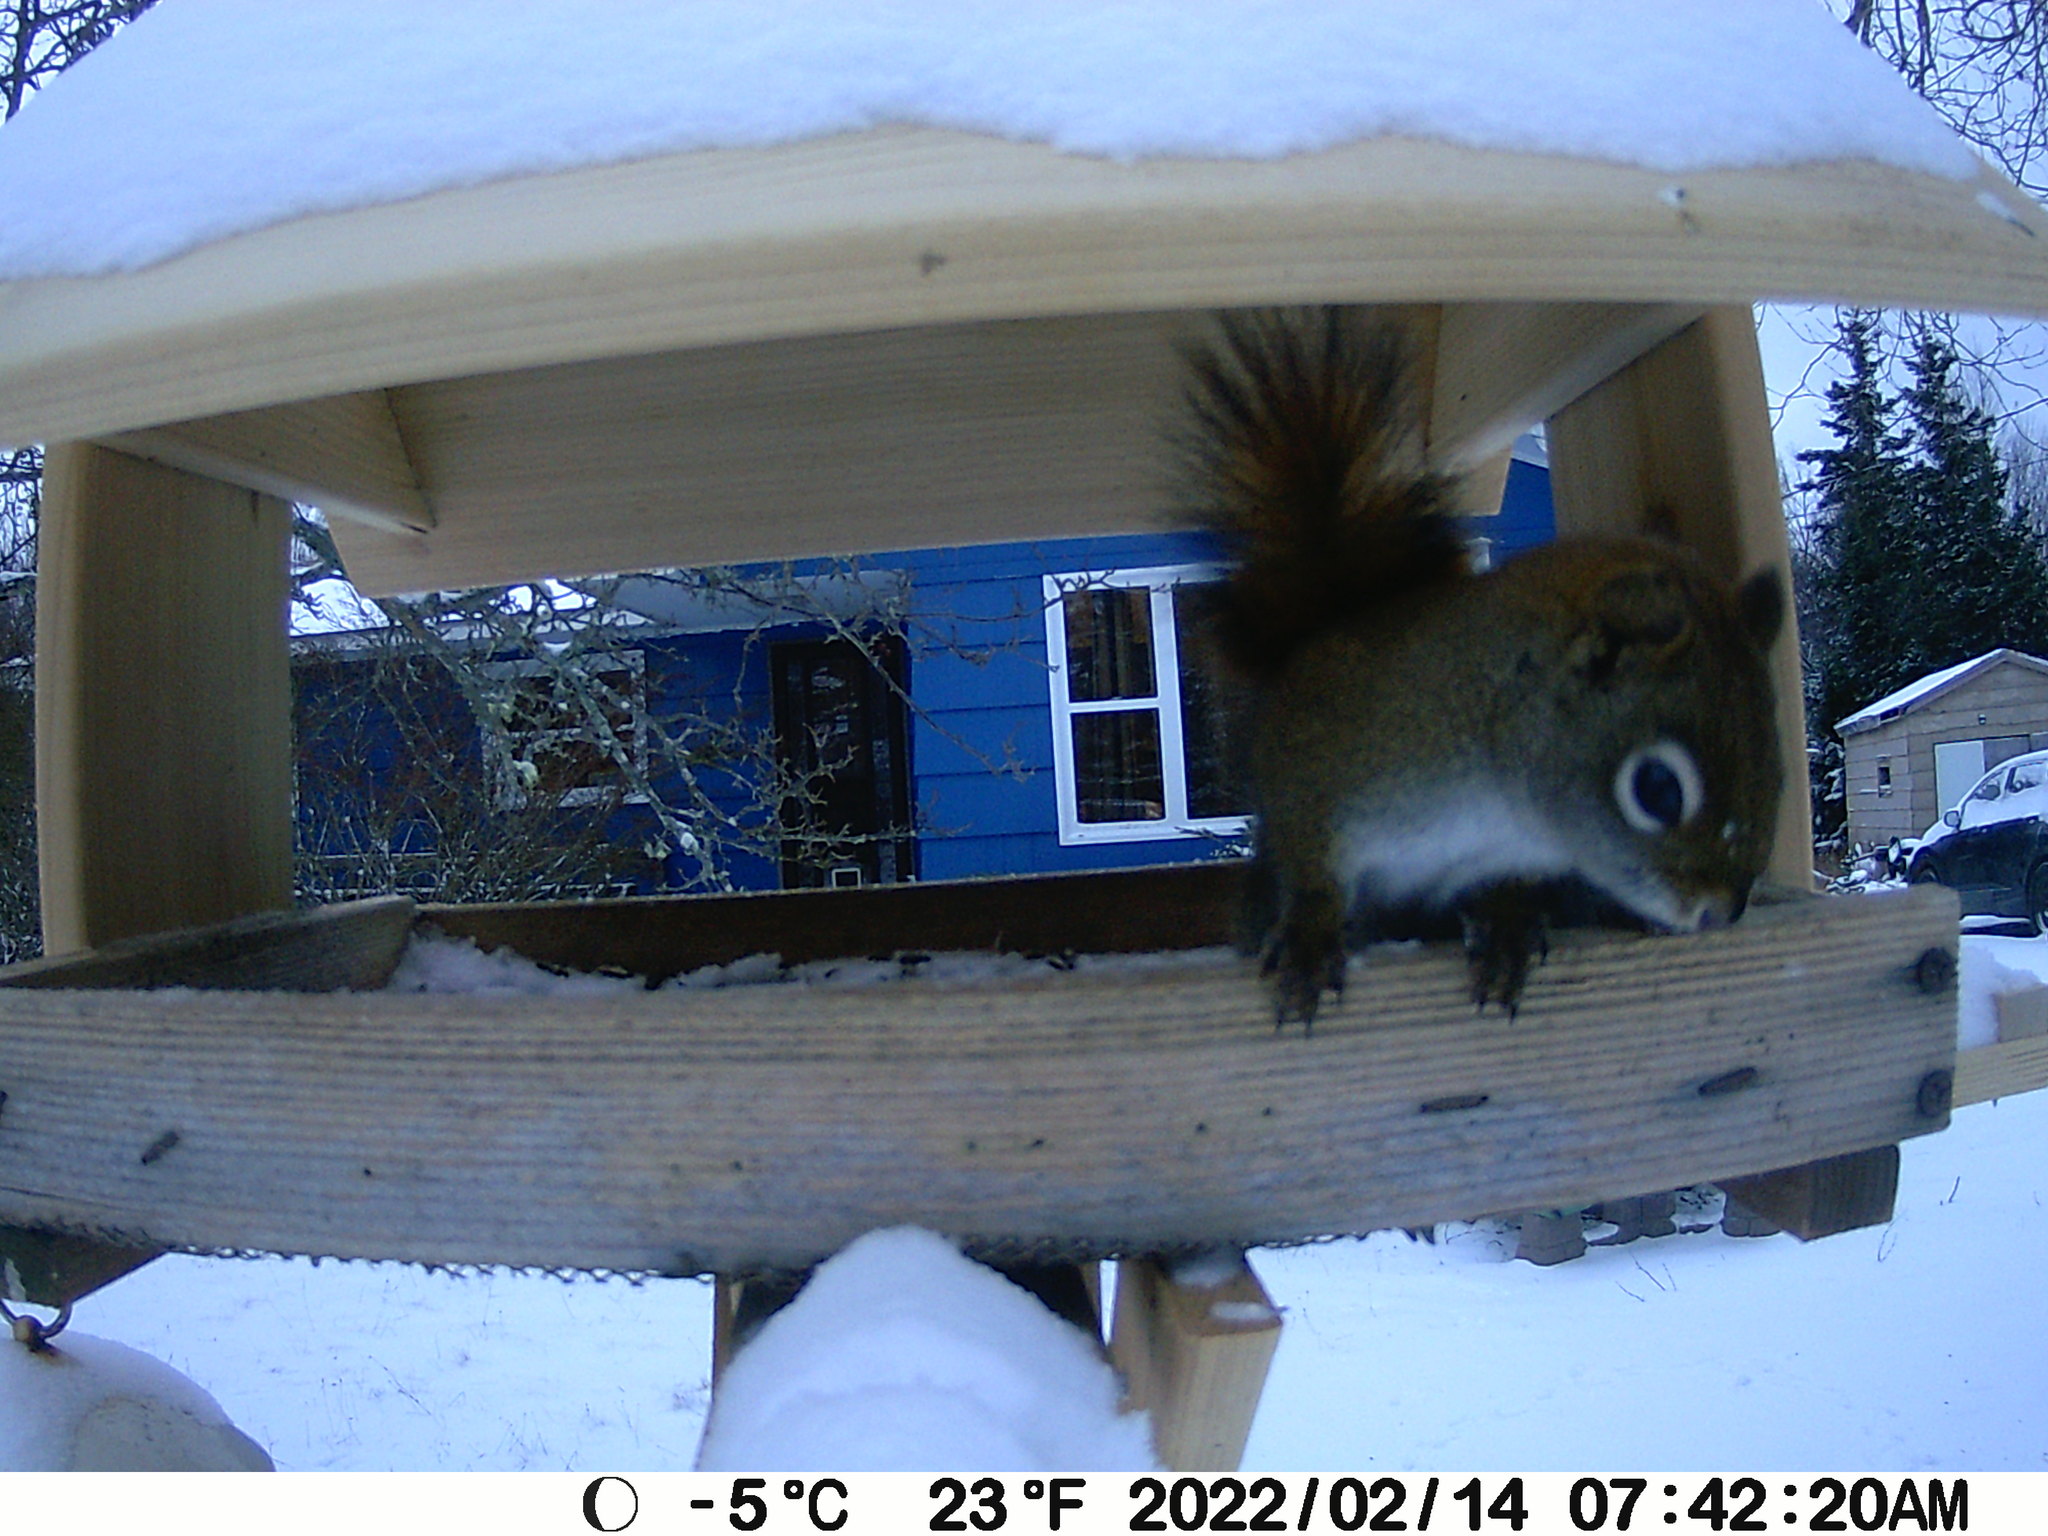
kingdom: Animalia
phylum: Chordata
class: Mammalia
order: Rodentia
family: Sciuridae
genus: Tamiasciurus
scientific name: Tamiasciurus hudsonicus
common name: Red squirrel
